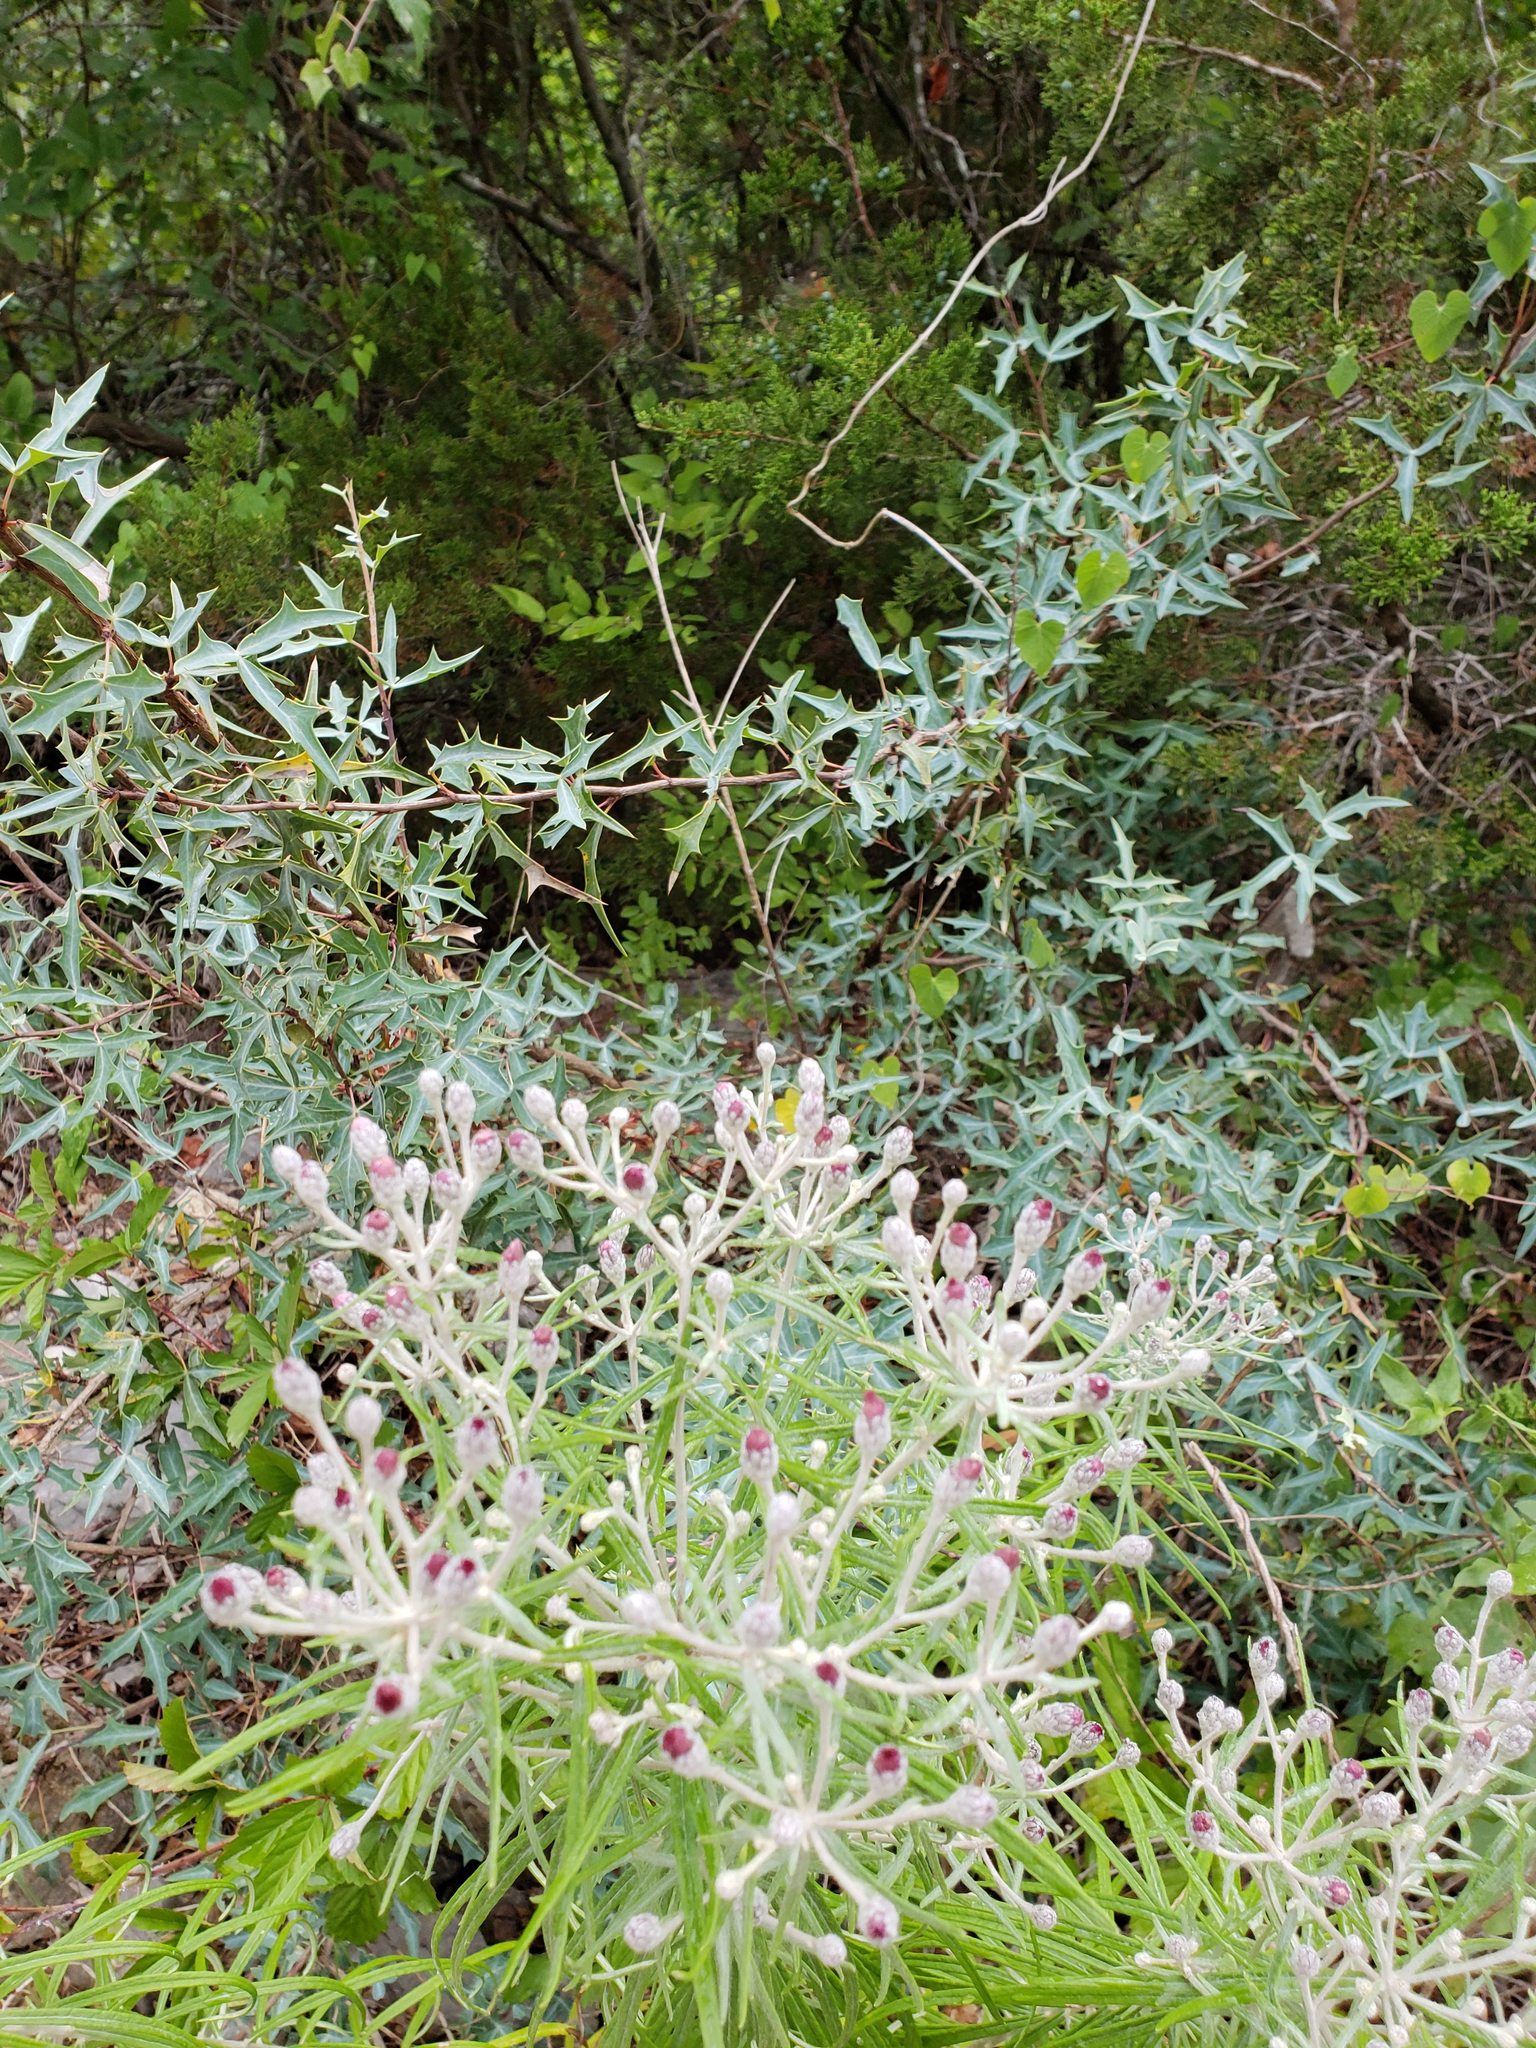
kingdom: Plantae
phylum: Tracheophyta
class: Magnoliopsida
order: Asterales
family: Asteraceae
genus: Vernonia
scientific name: Vernonia lindheimeri
